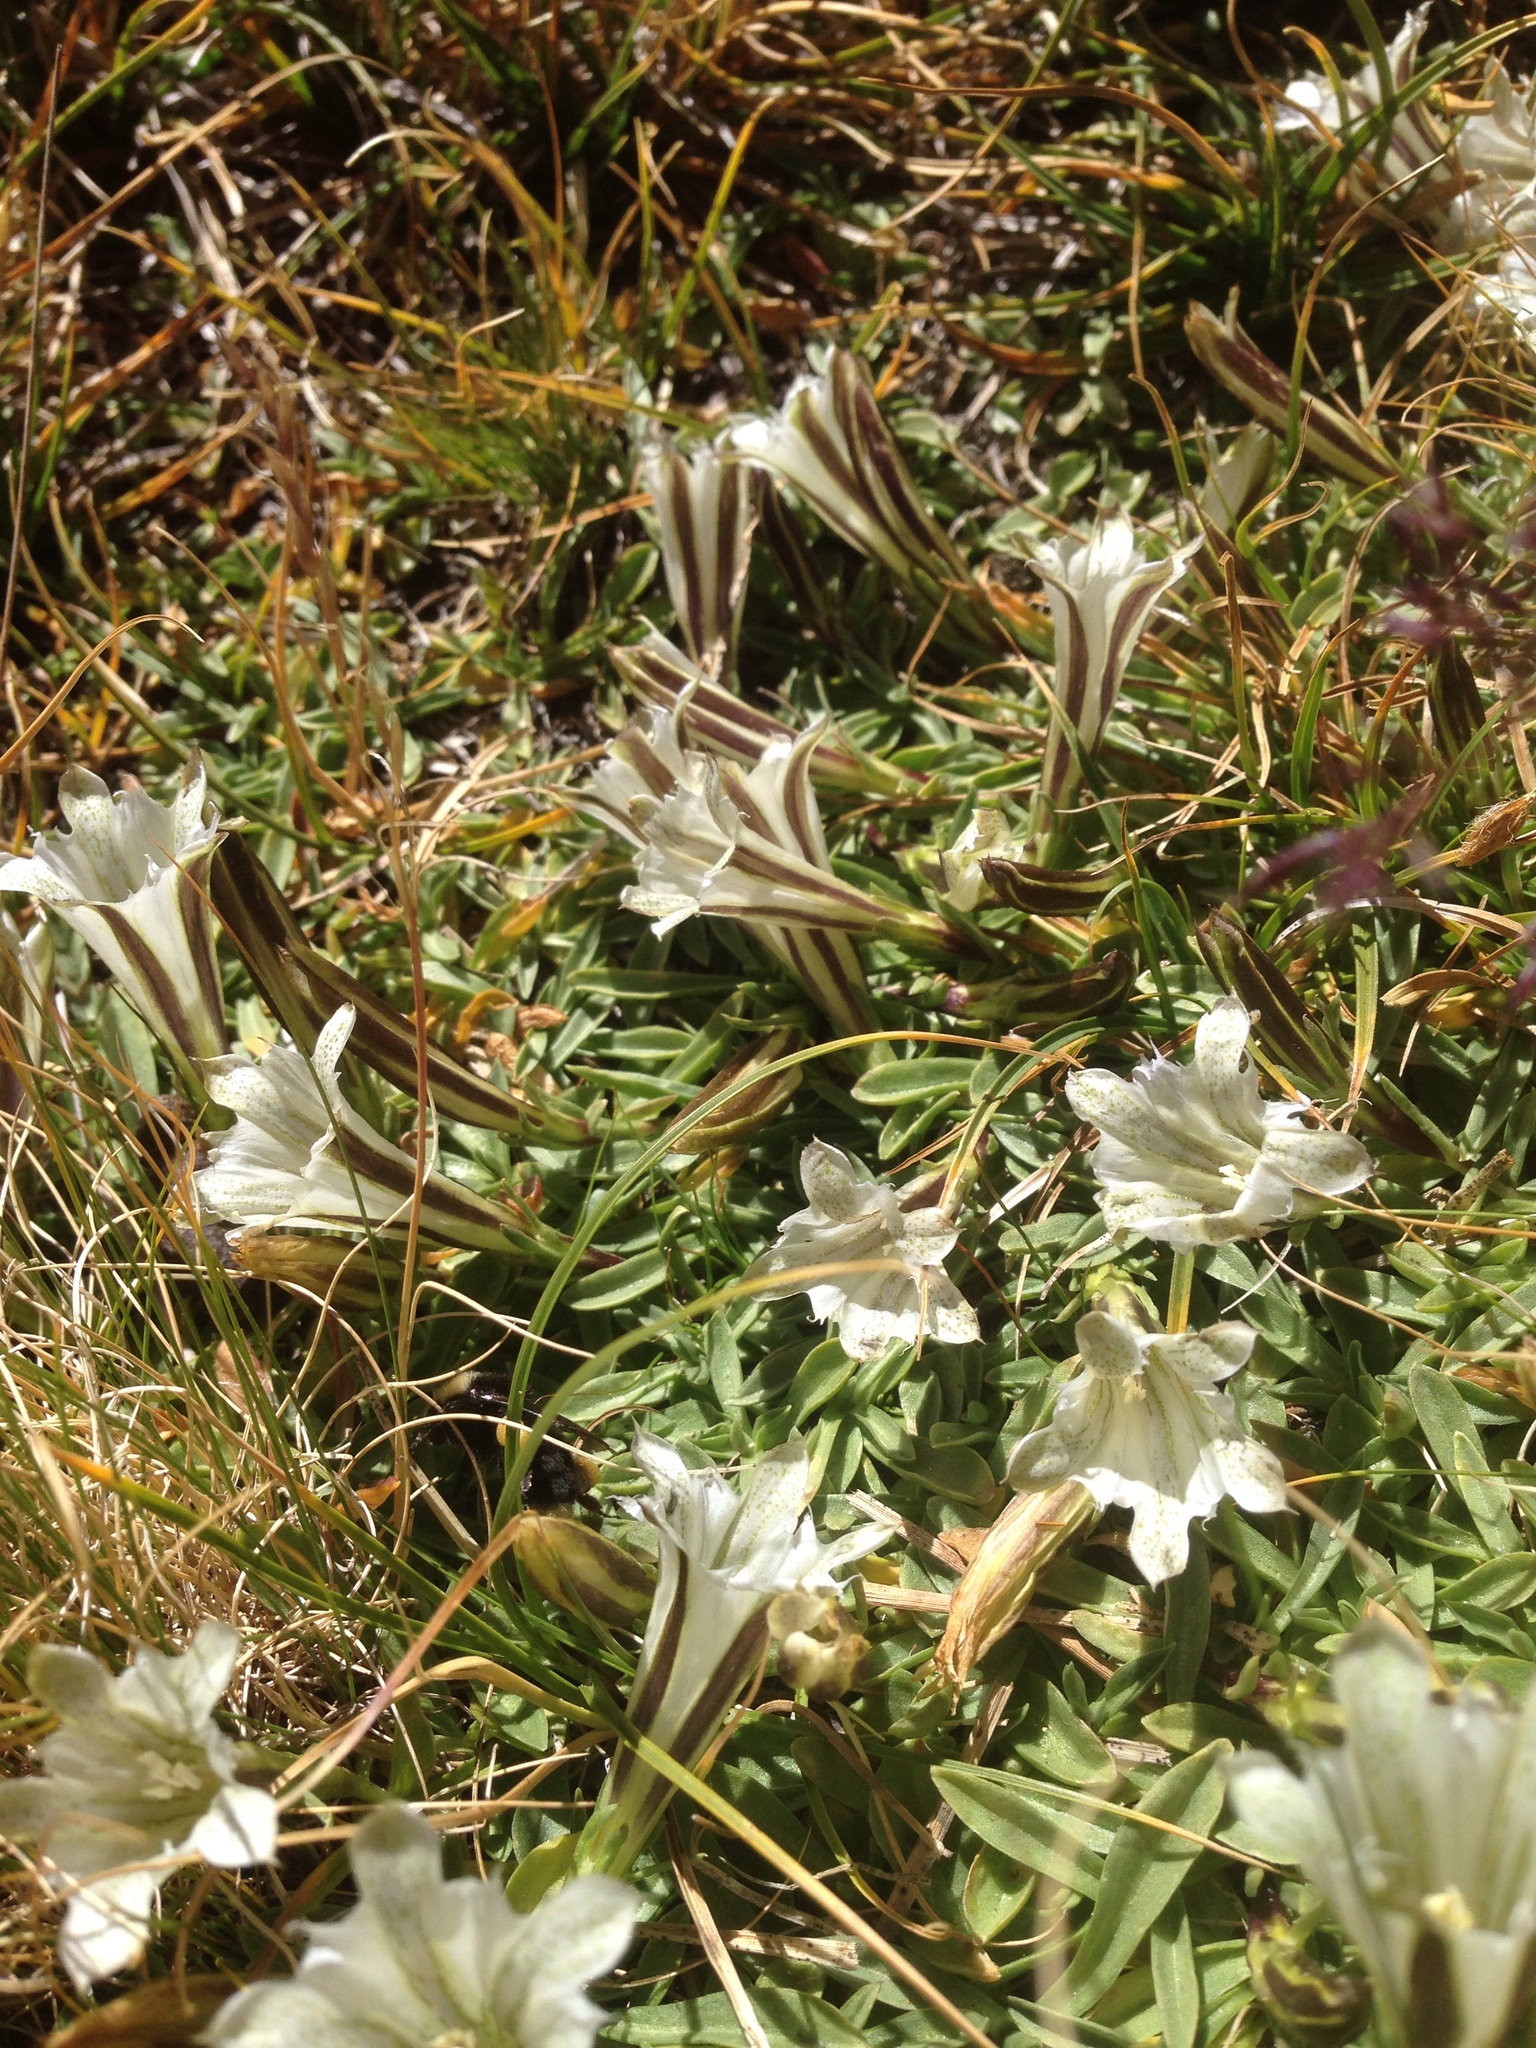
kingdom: Plantae
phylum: Tracheophyta
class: Magnoliopsida
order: Gentianales
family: Gentianaceae
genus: Gentiana
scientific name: Gentiana newberryi
